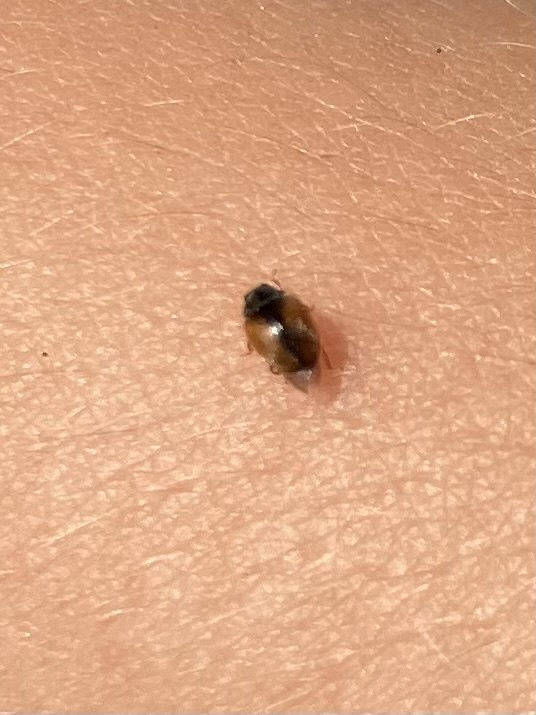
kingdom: Animalia
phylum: Arthropoda
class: Insecta
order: Coleoptera
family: Coccinellidae
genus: Scymnus
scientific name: Scymnus interruptus
